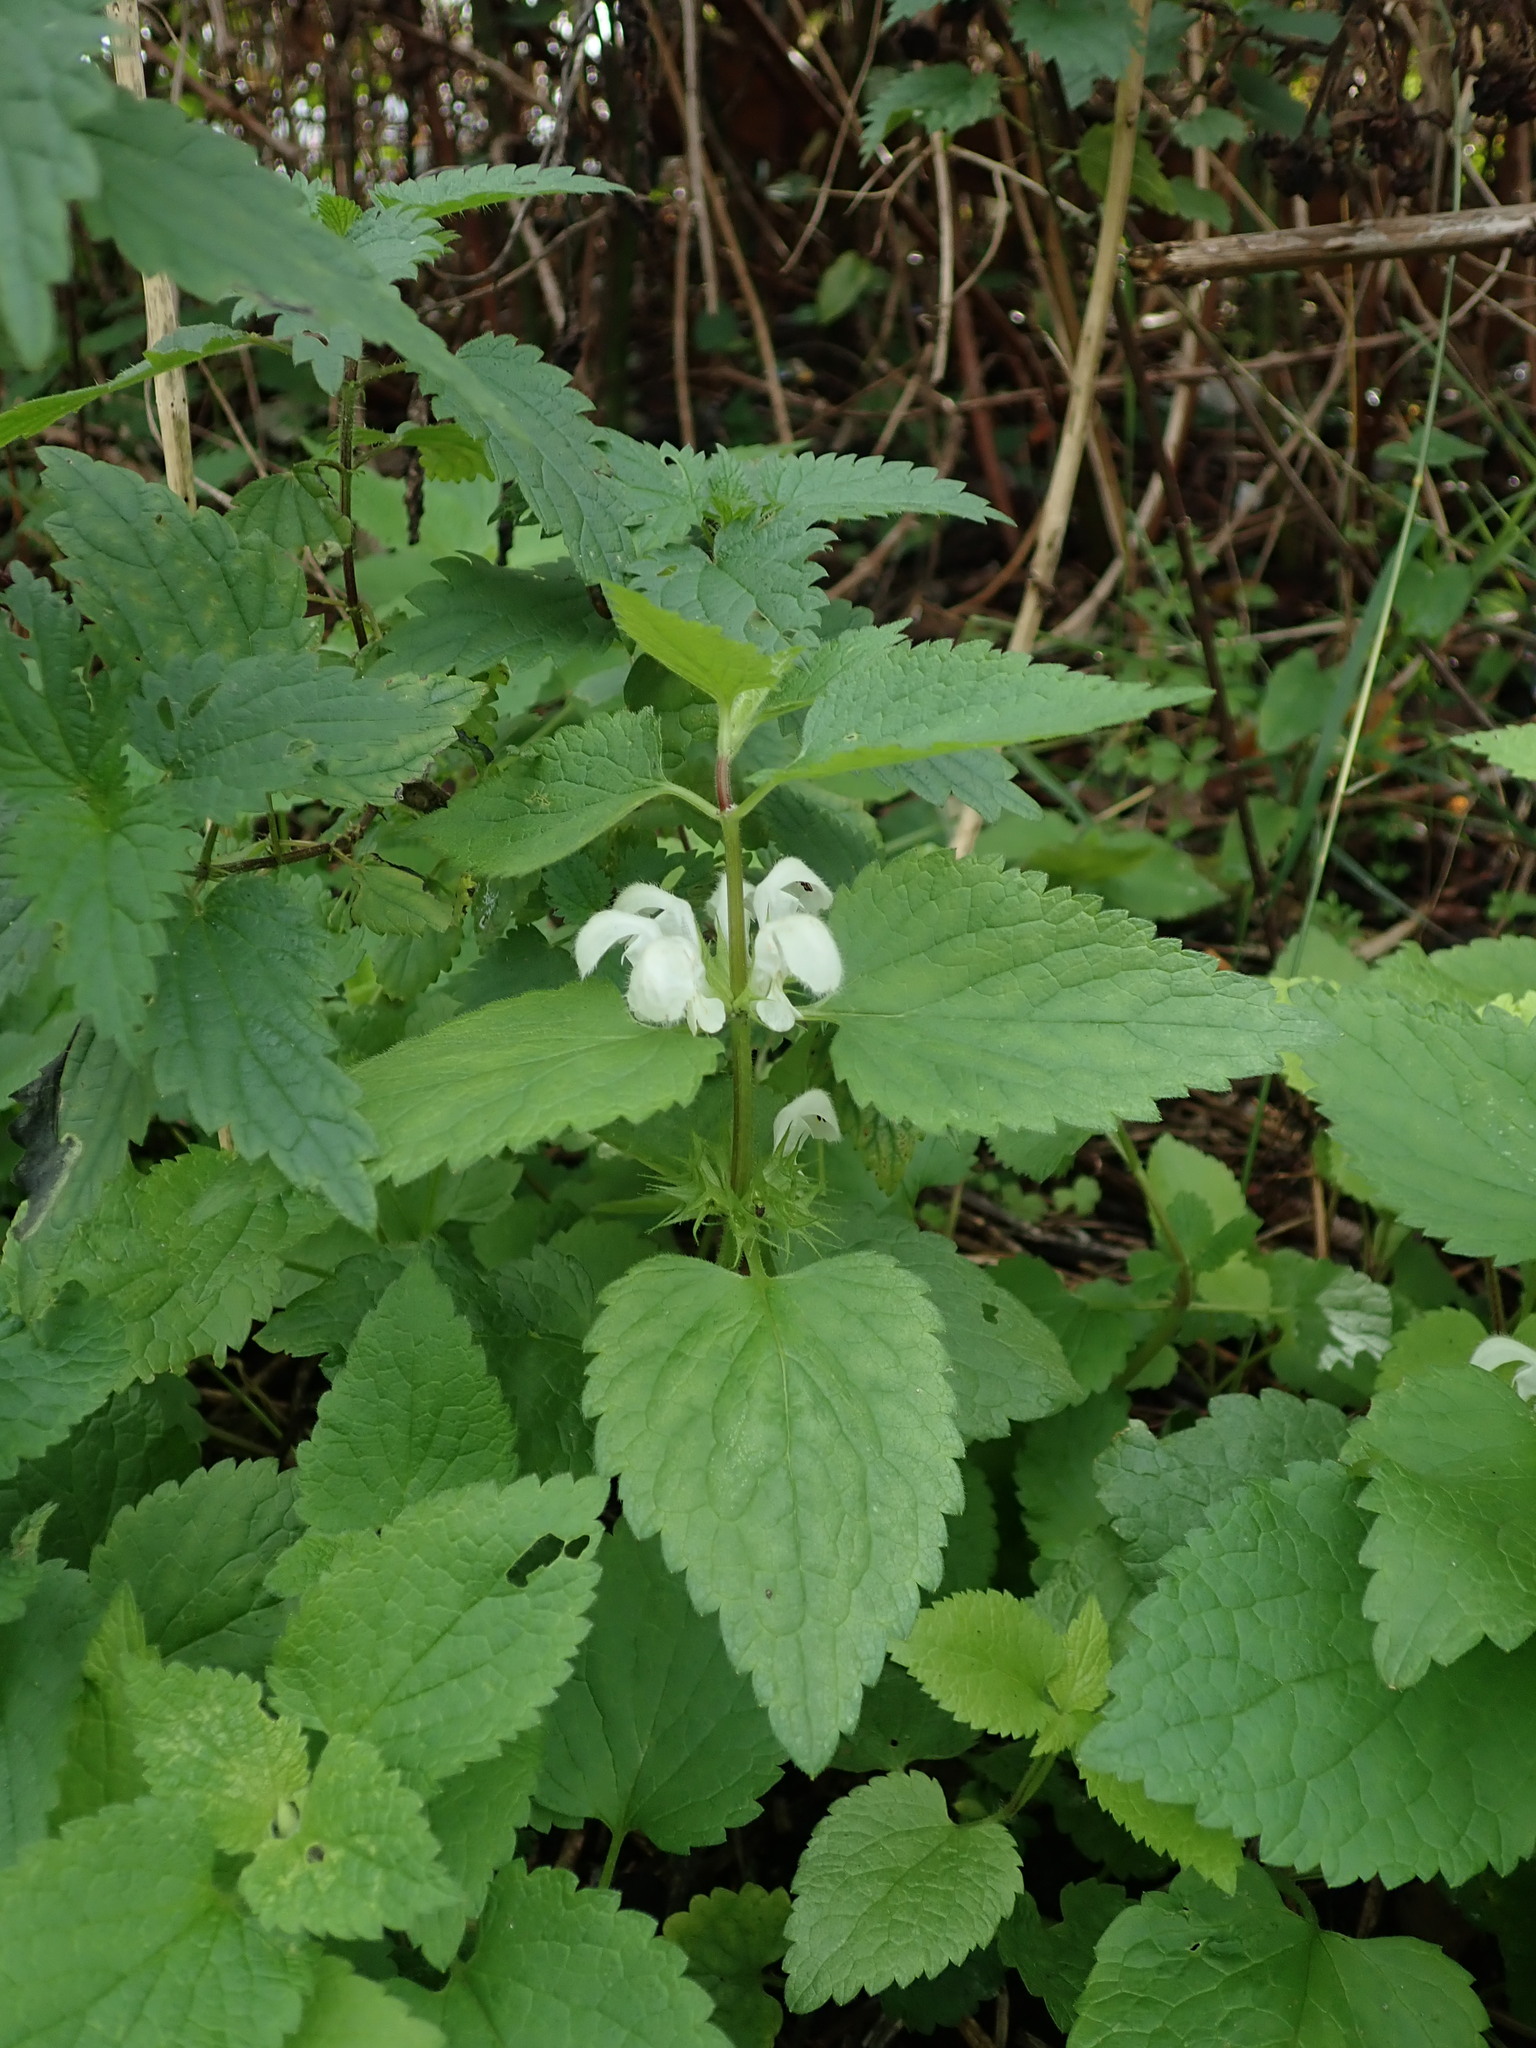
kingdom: Plantae
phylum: Tracheophyta
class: Magnoliopsida
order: Lamiales
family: Lamiaceae
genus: Lamium
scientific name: Lamium album
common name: White dead-nettle
